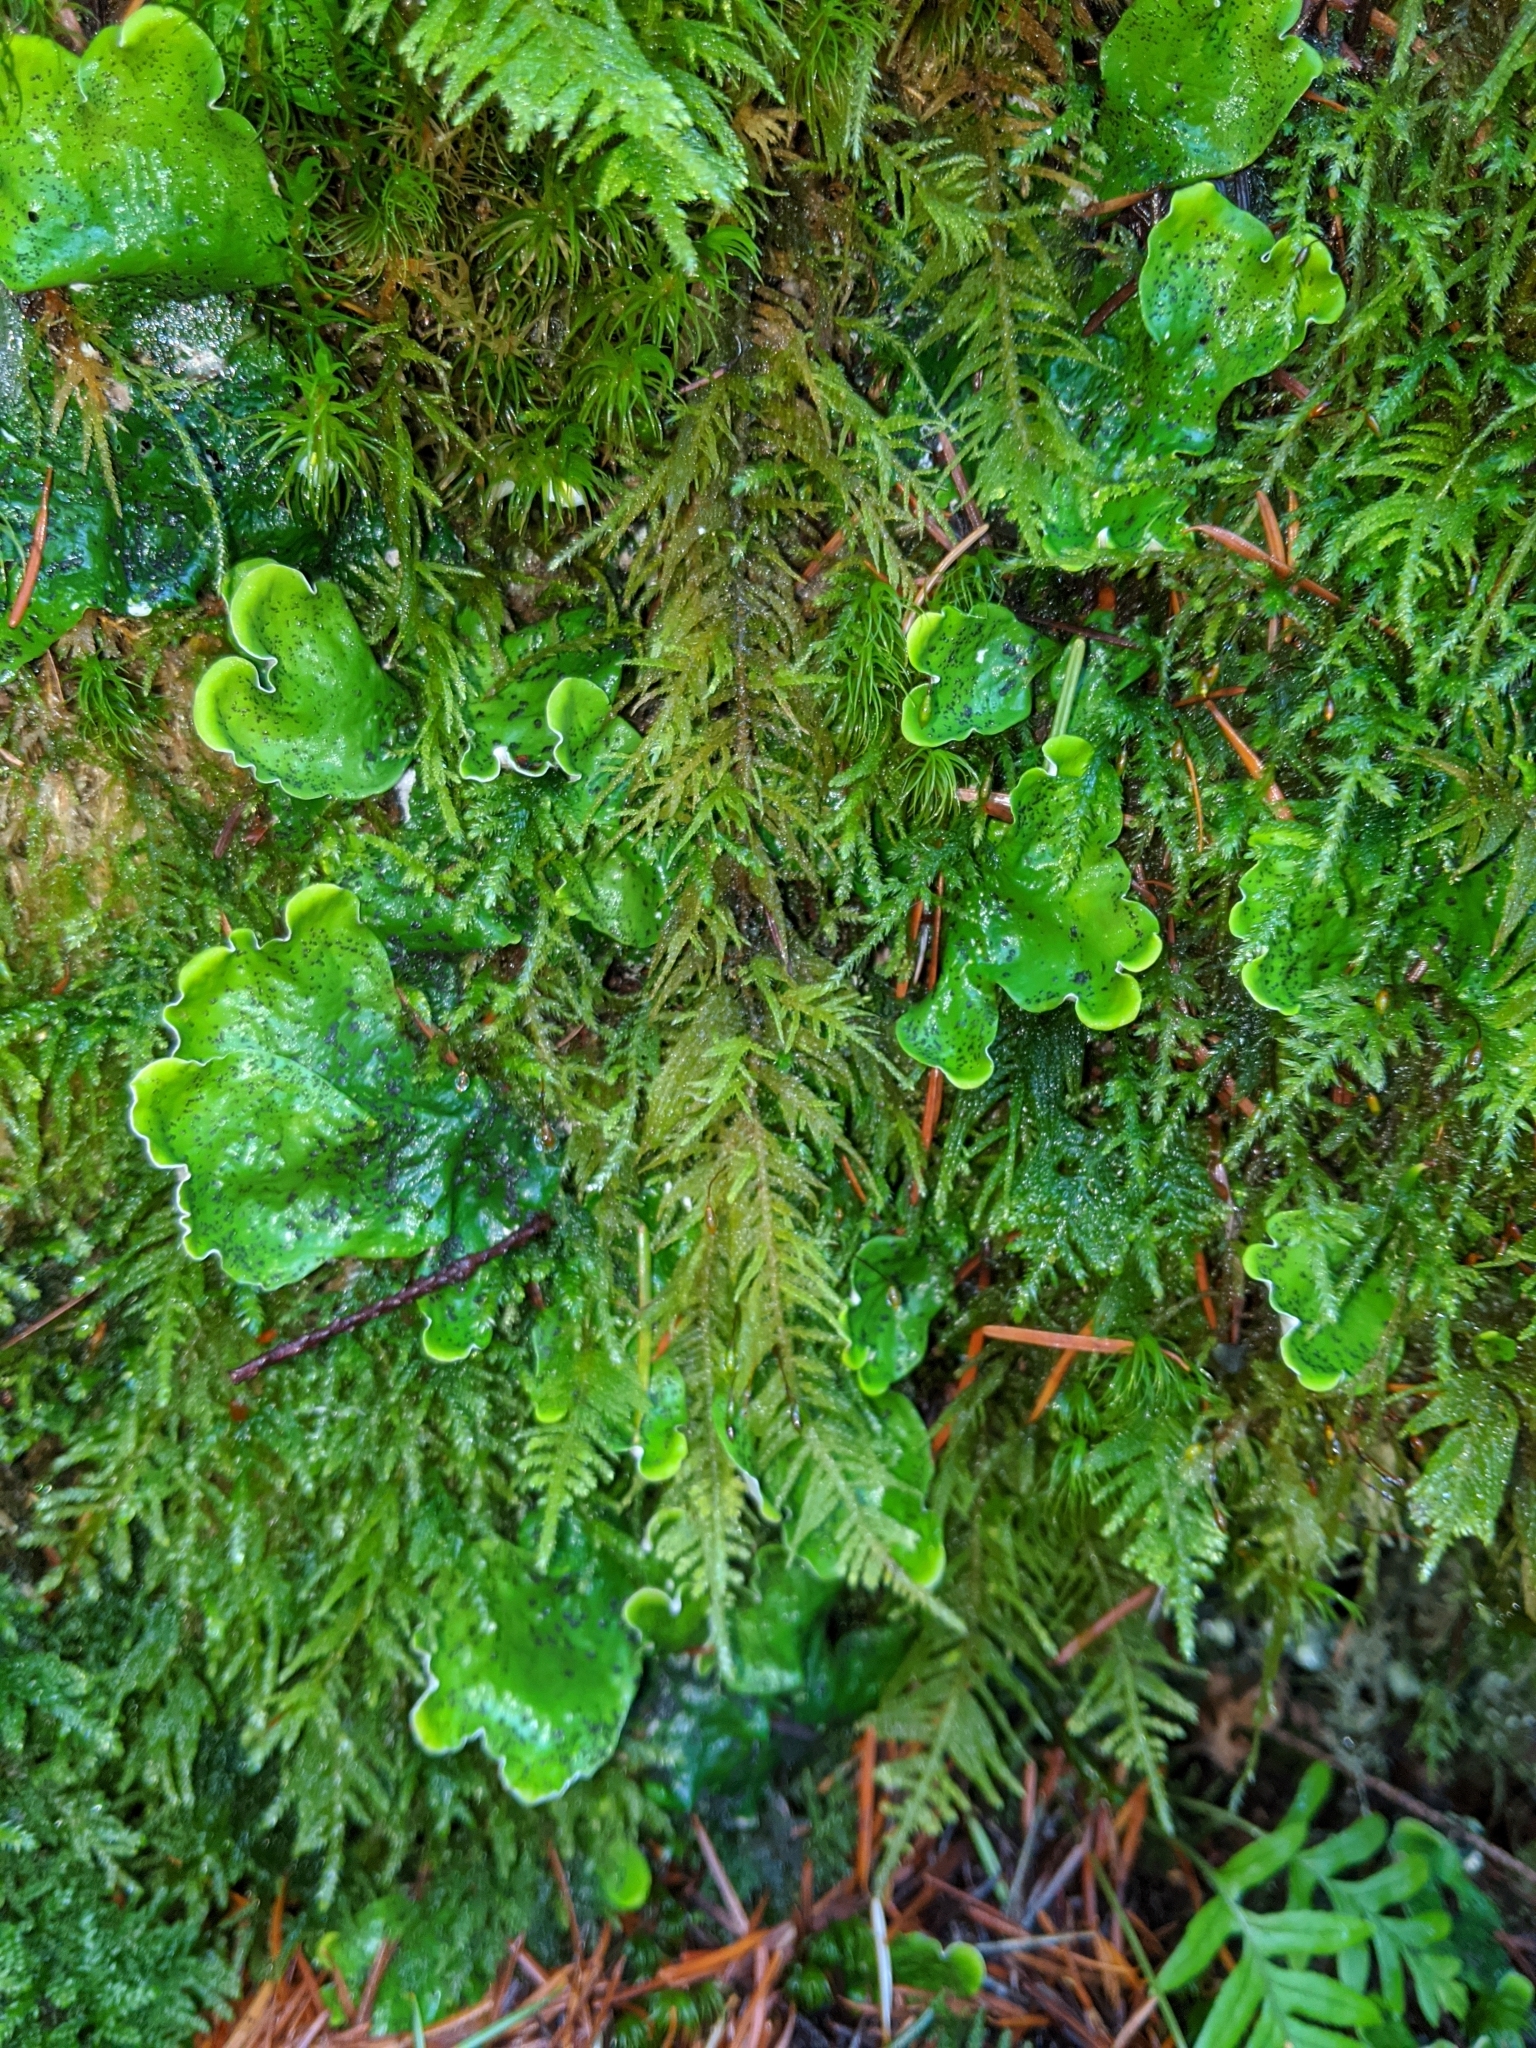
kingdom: Fungi
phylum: Ascomycota
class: Lecanoromycetes
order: Peltigerales
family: Peltigeraceae
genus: Peltigera
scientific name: Peltigera aphthosa
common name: Common freckle pelt lichen
